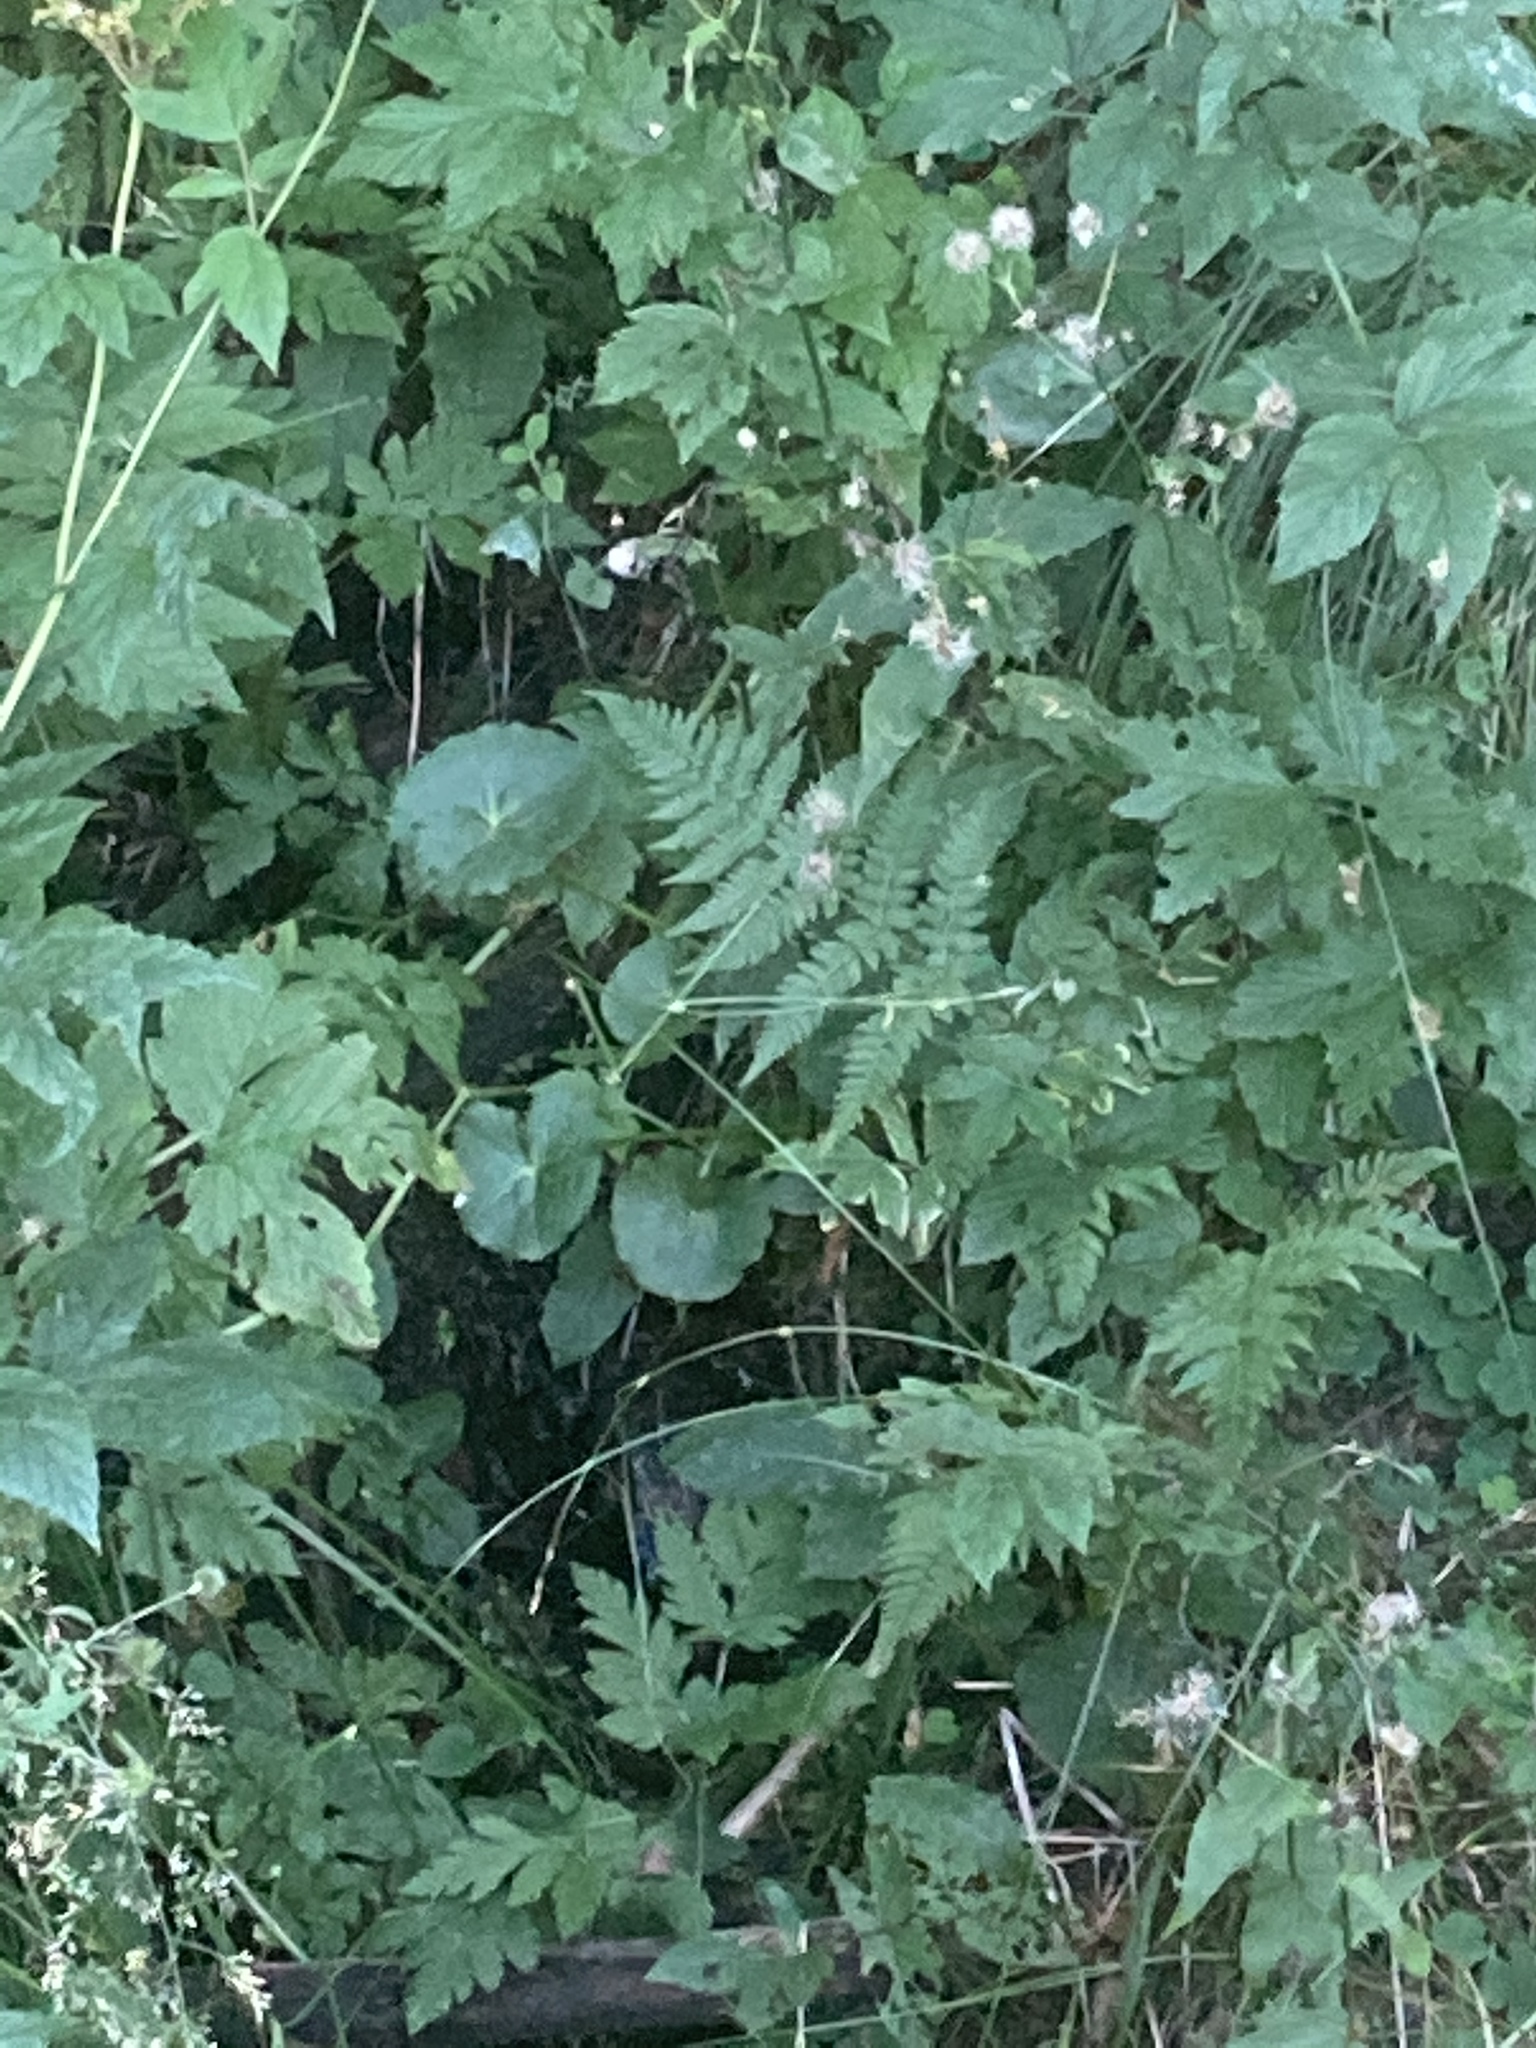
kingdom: Plantae
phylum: Tracheophyta
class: Magnoliopsida
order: Ranunculales
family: Ranunculaceae
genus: Caltha
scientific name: Caltha palustris
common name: Marsh marigold
